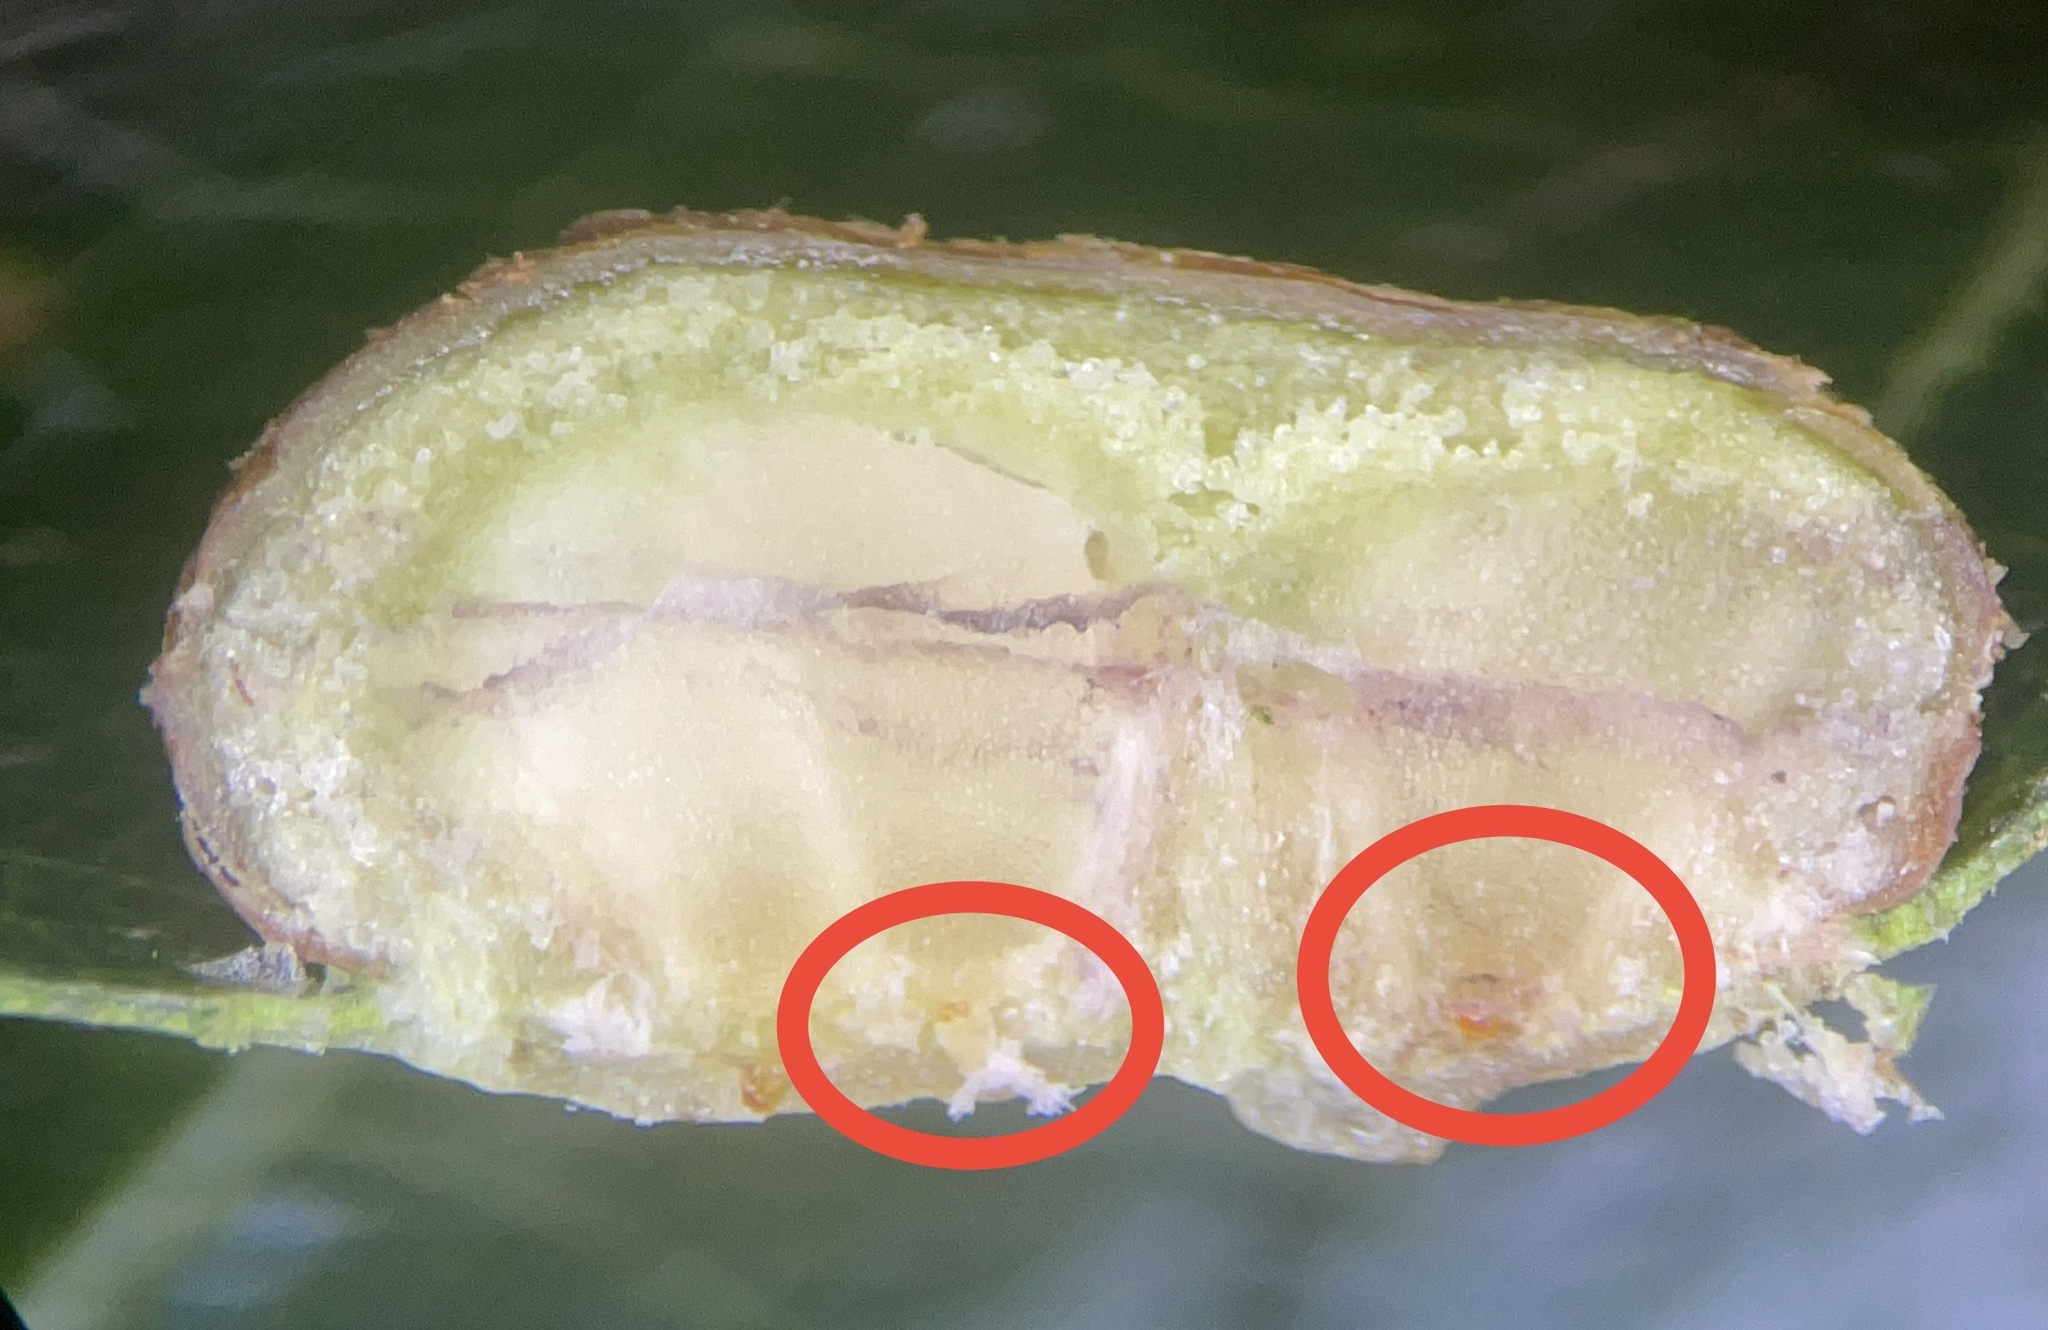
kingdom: Animalia
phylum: Arthropoda
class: Insecta
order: Diptera
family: Cecidomyiidae
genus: Polystepha
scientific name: Polystepha pilulae
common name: Oak leaf gall midge
